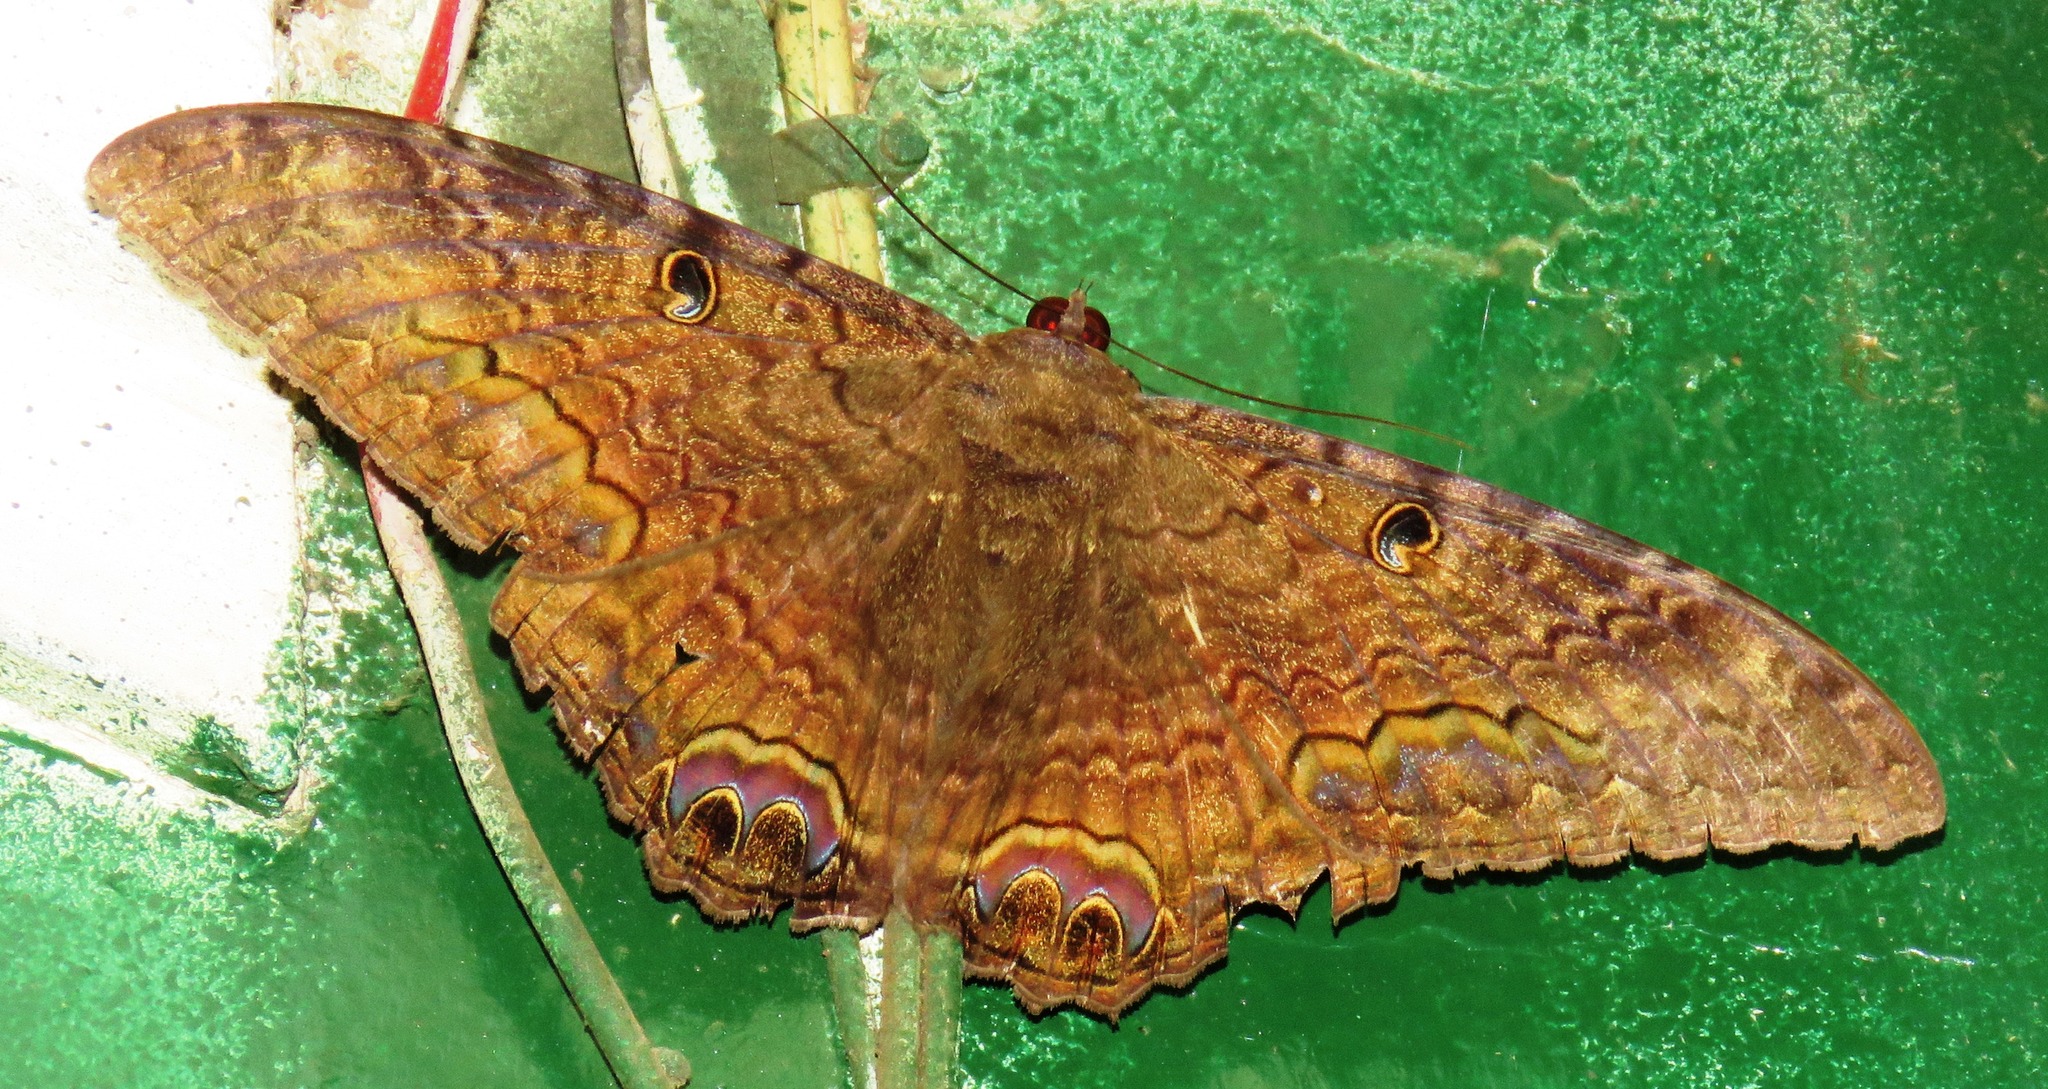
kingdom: Animalia
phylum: Arthropoda
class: Insecta
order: Lepidoptera
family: Erebidae
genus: Ascalapha
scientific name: Ascalapha odorata
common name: Black witch
